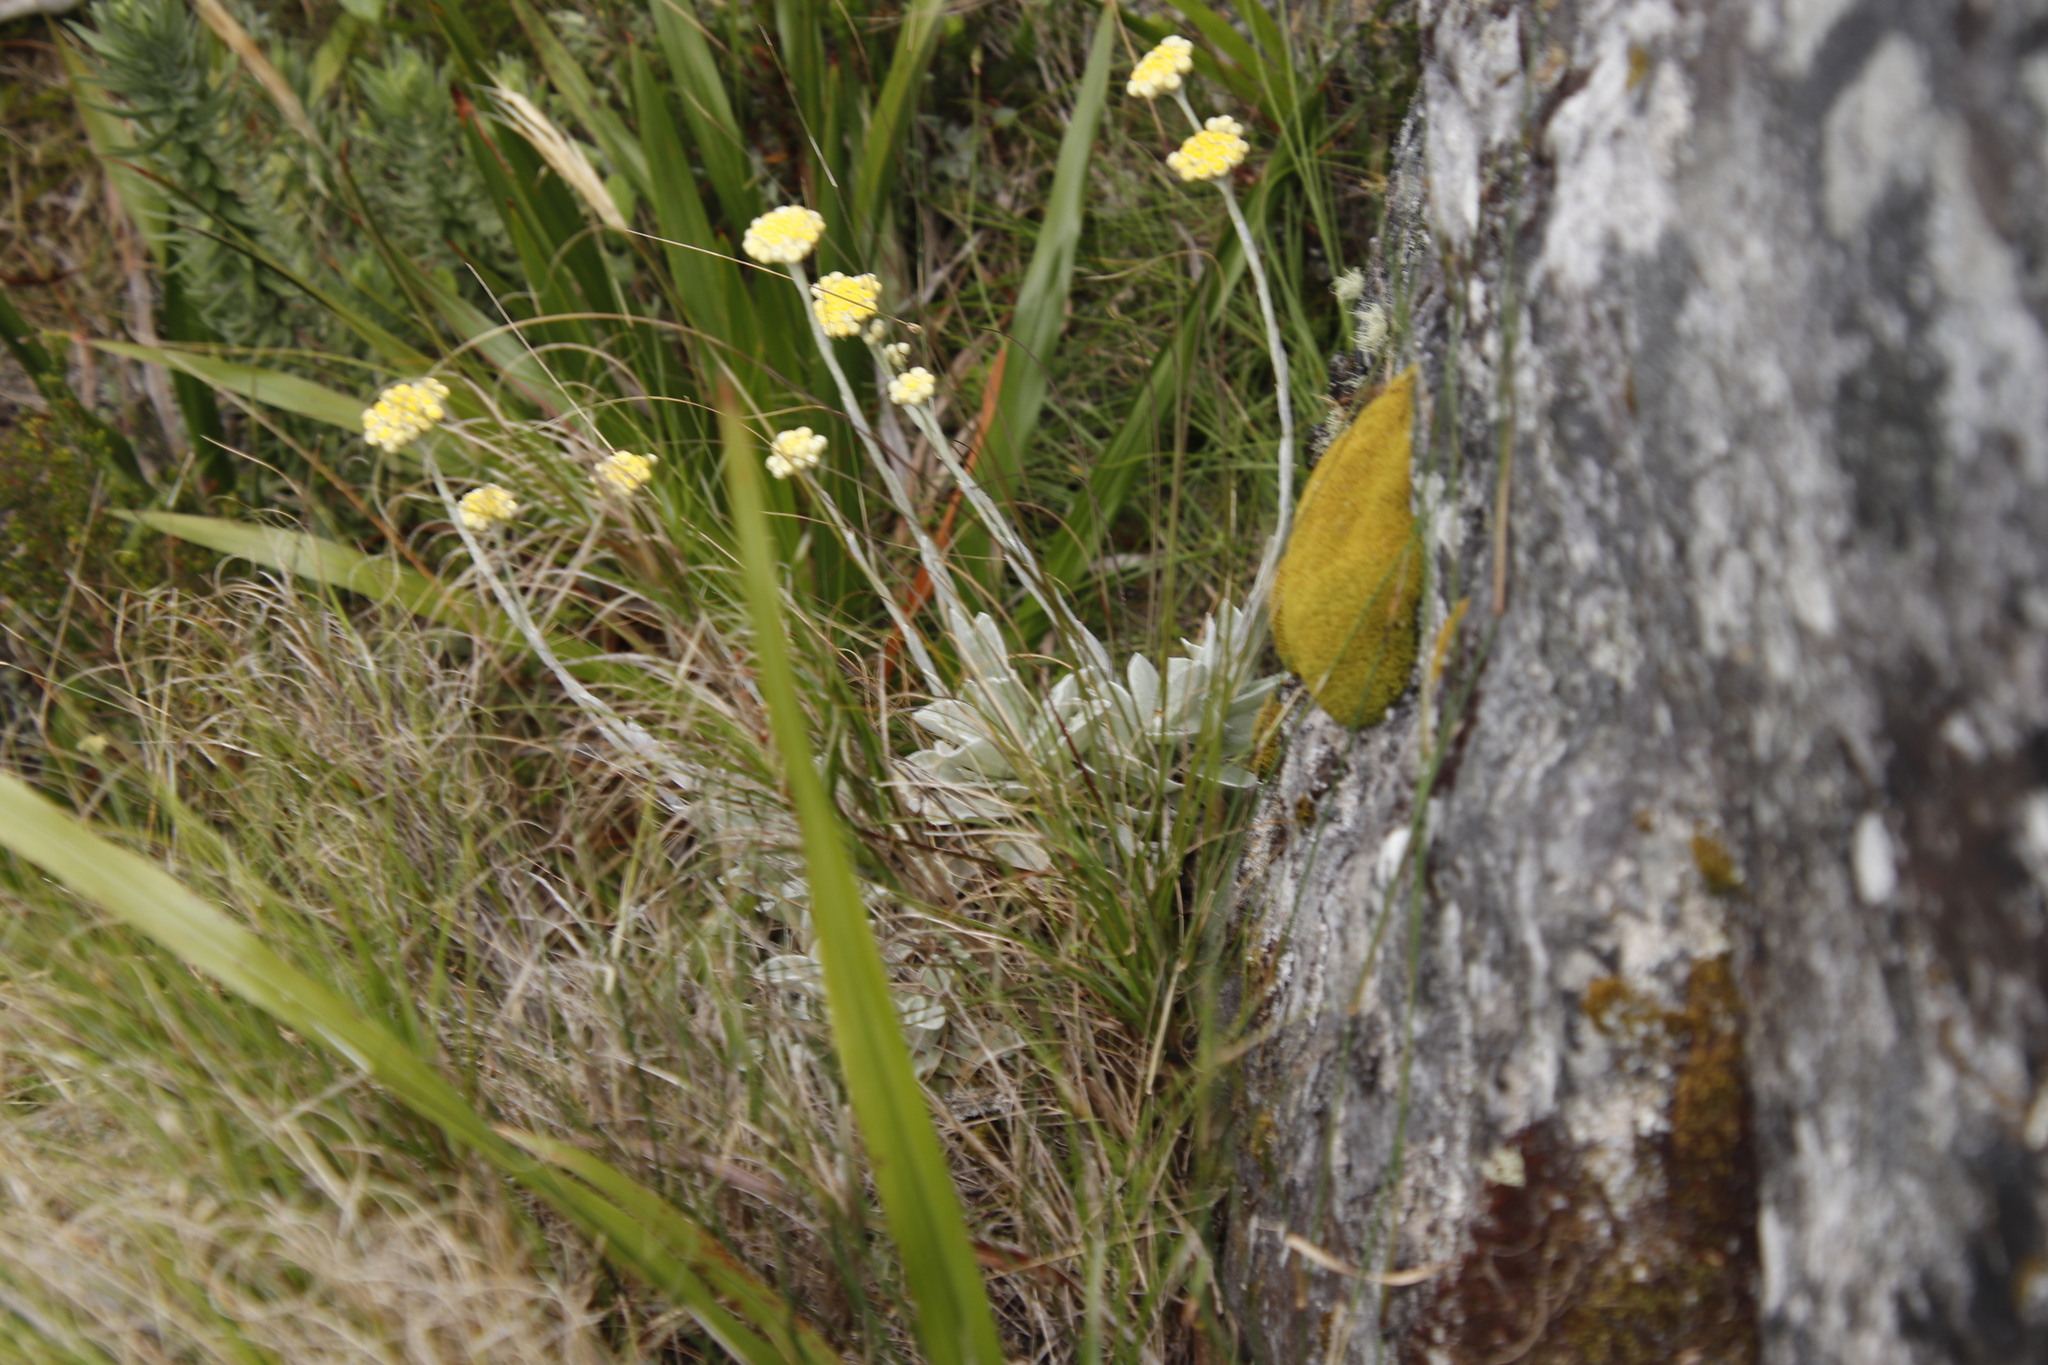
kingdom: Plantae
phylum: Tracheophyta
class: Magnoliopsida
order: Asterales
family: Asteraceae
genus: Helichrysum
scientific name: Helichrysum grandiflorum
